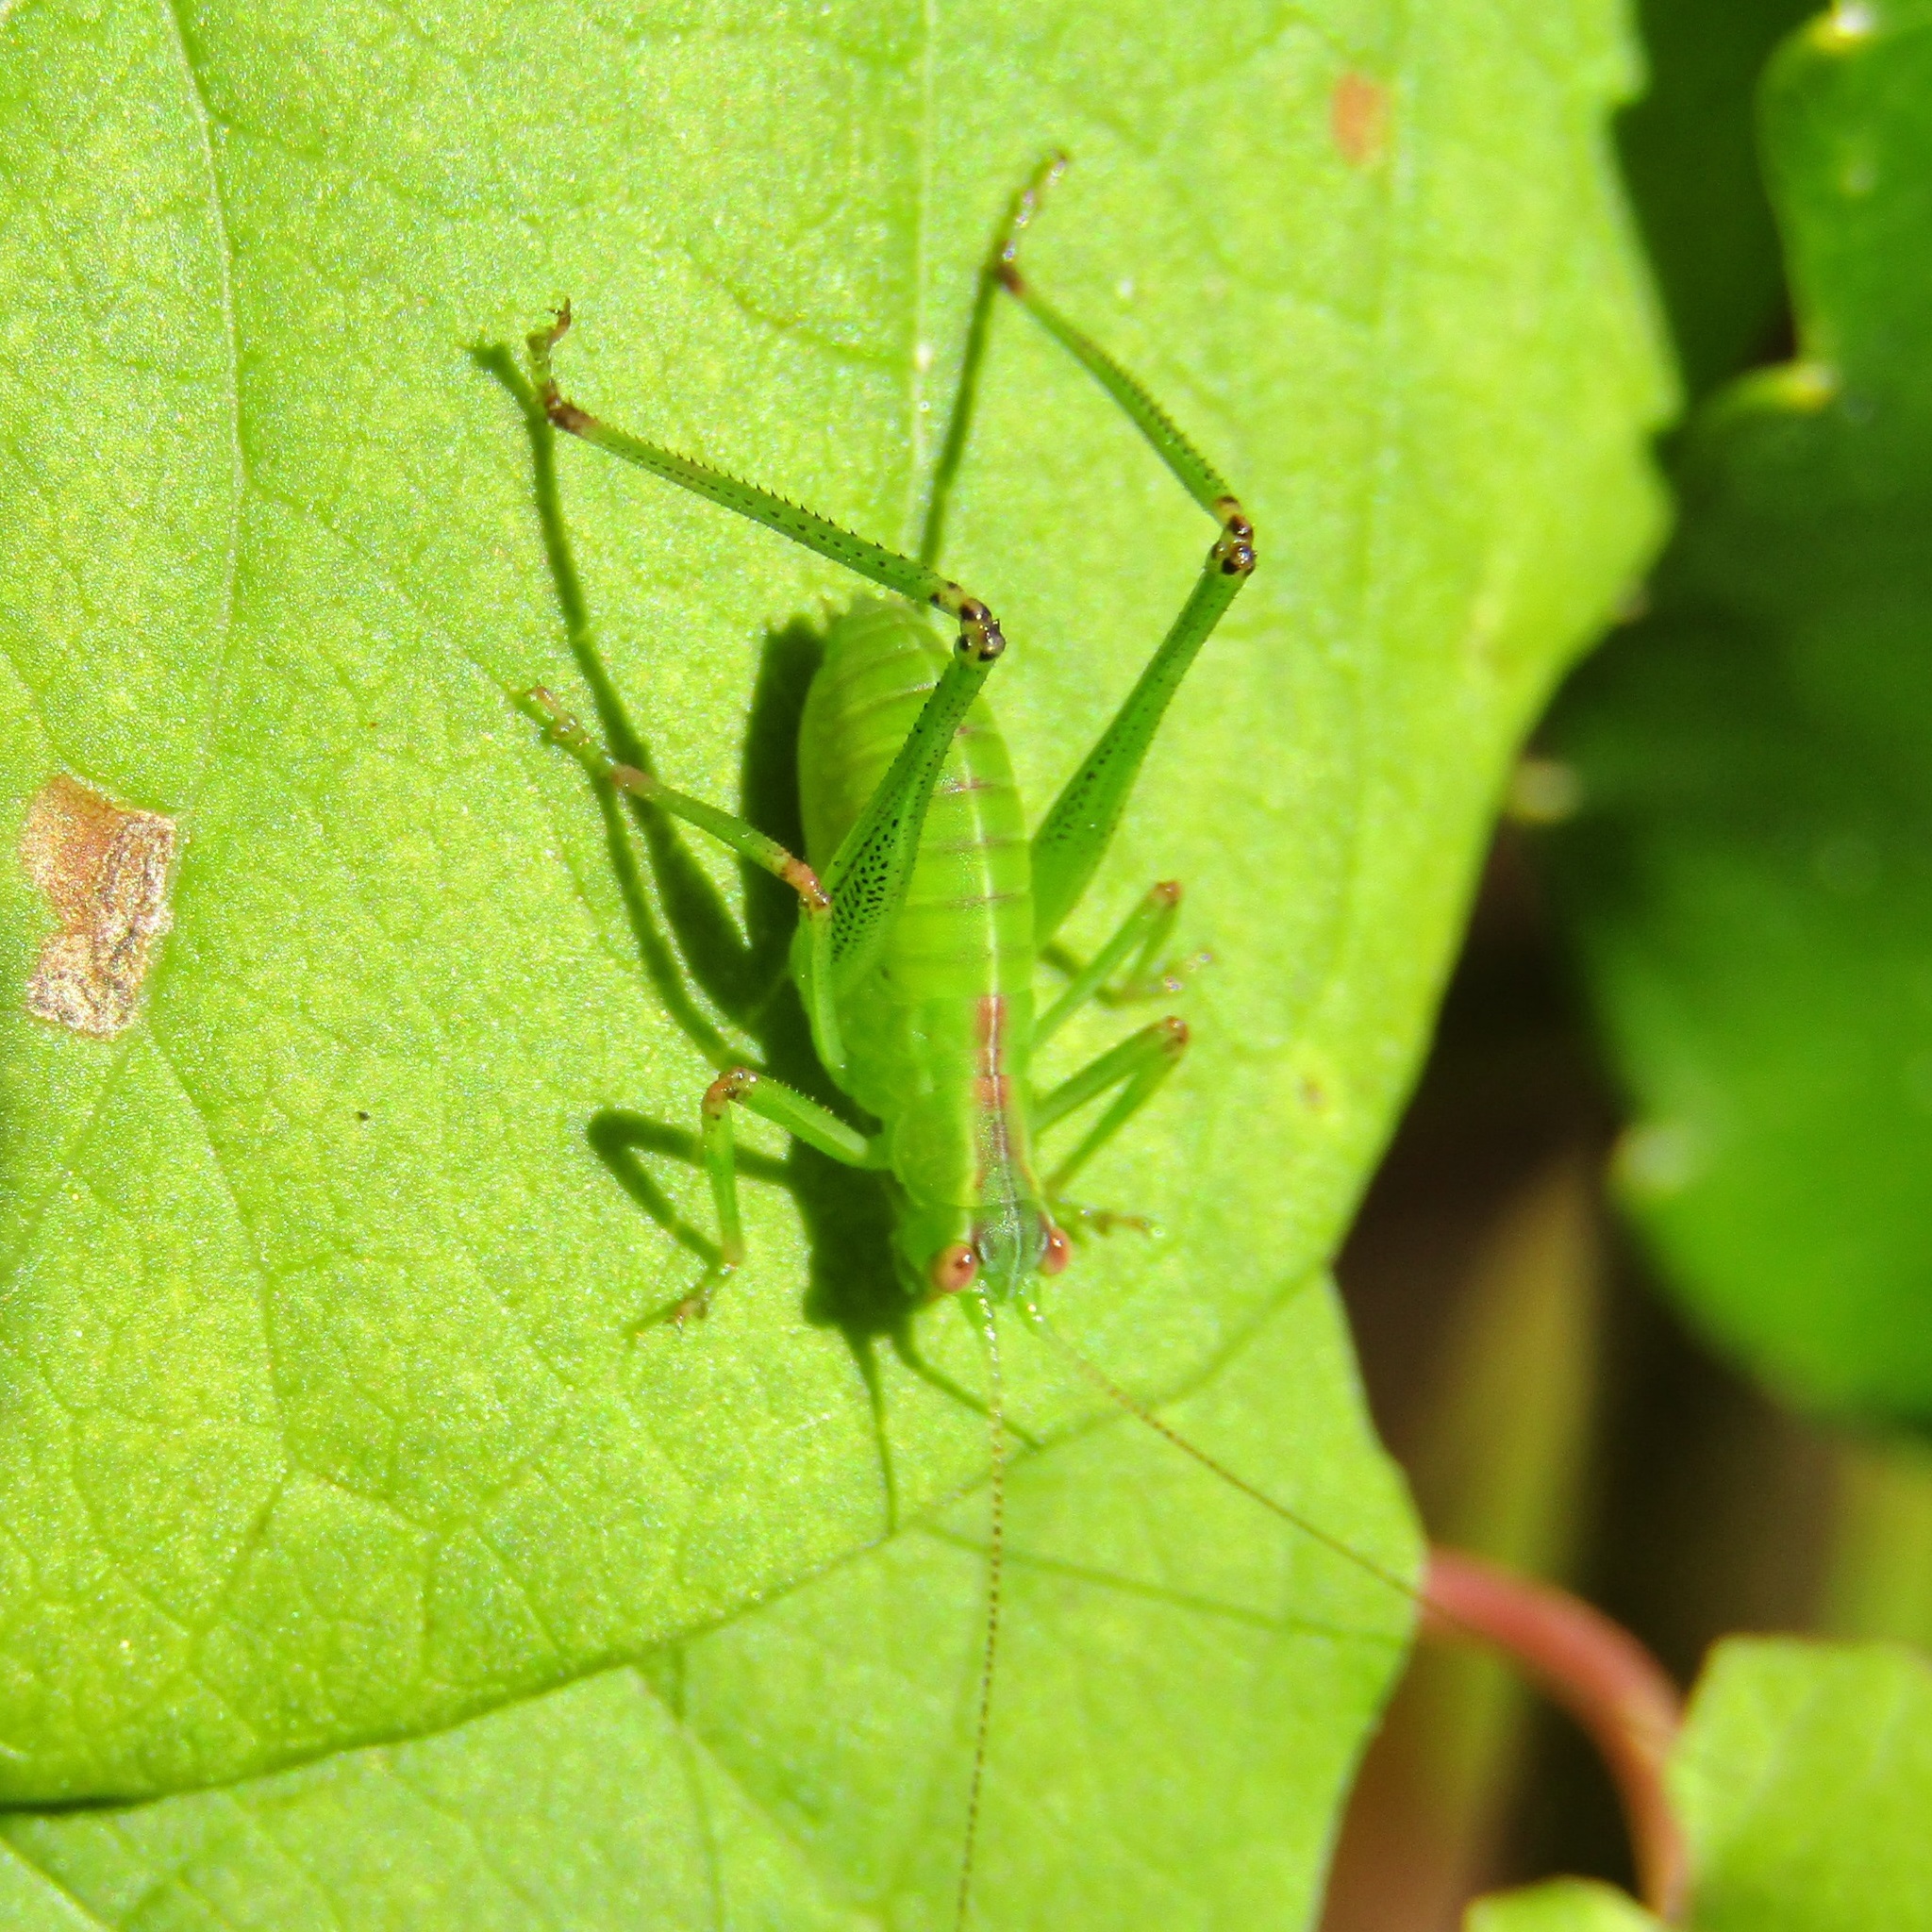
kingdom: Animalia
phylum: Arthropoda
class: Insecta
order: Orthoptera
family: Tettigoniidae
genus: Caedicia
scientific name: Caedicia simplex
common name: Common garden katydid
